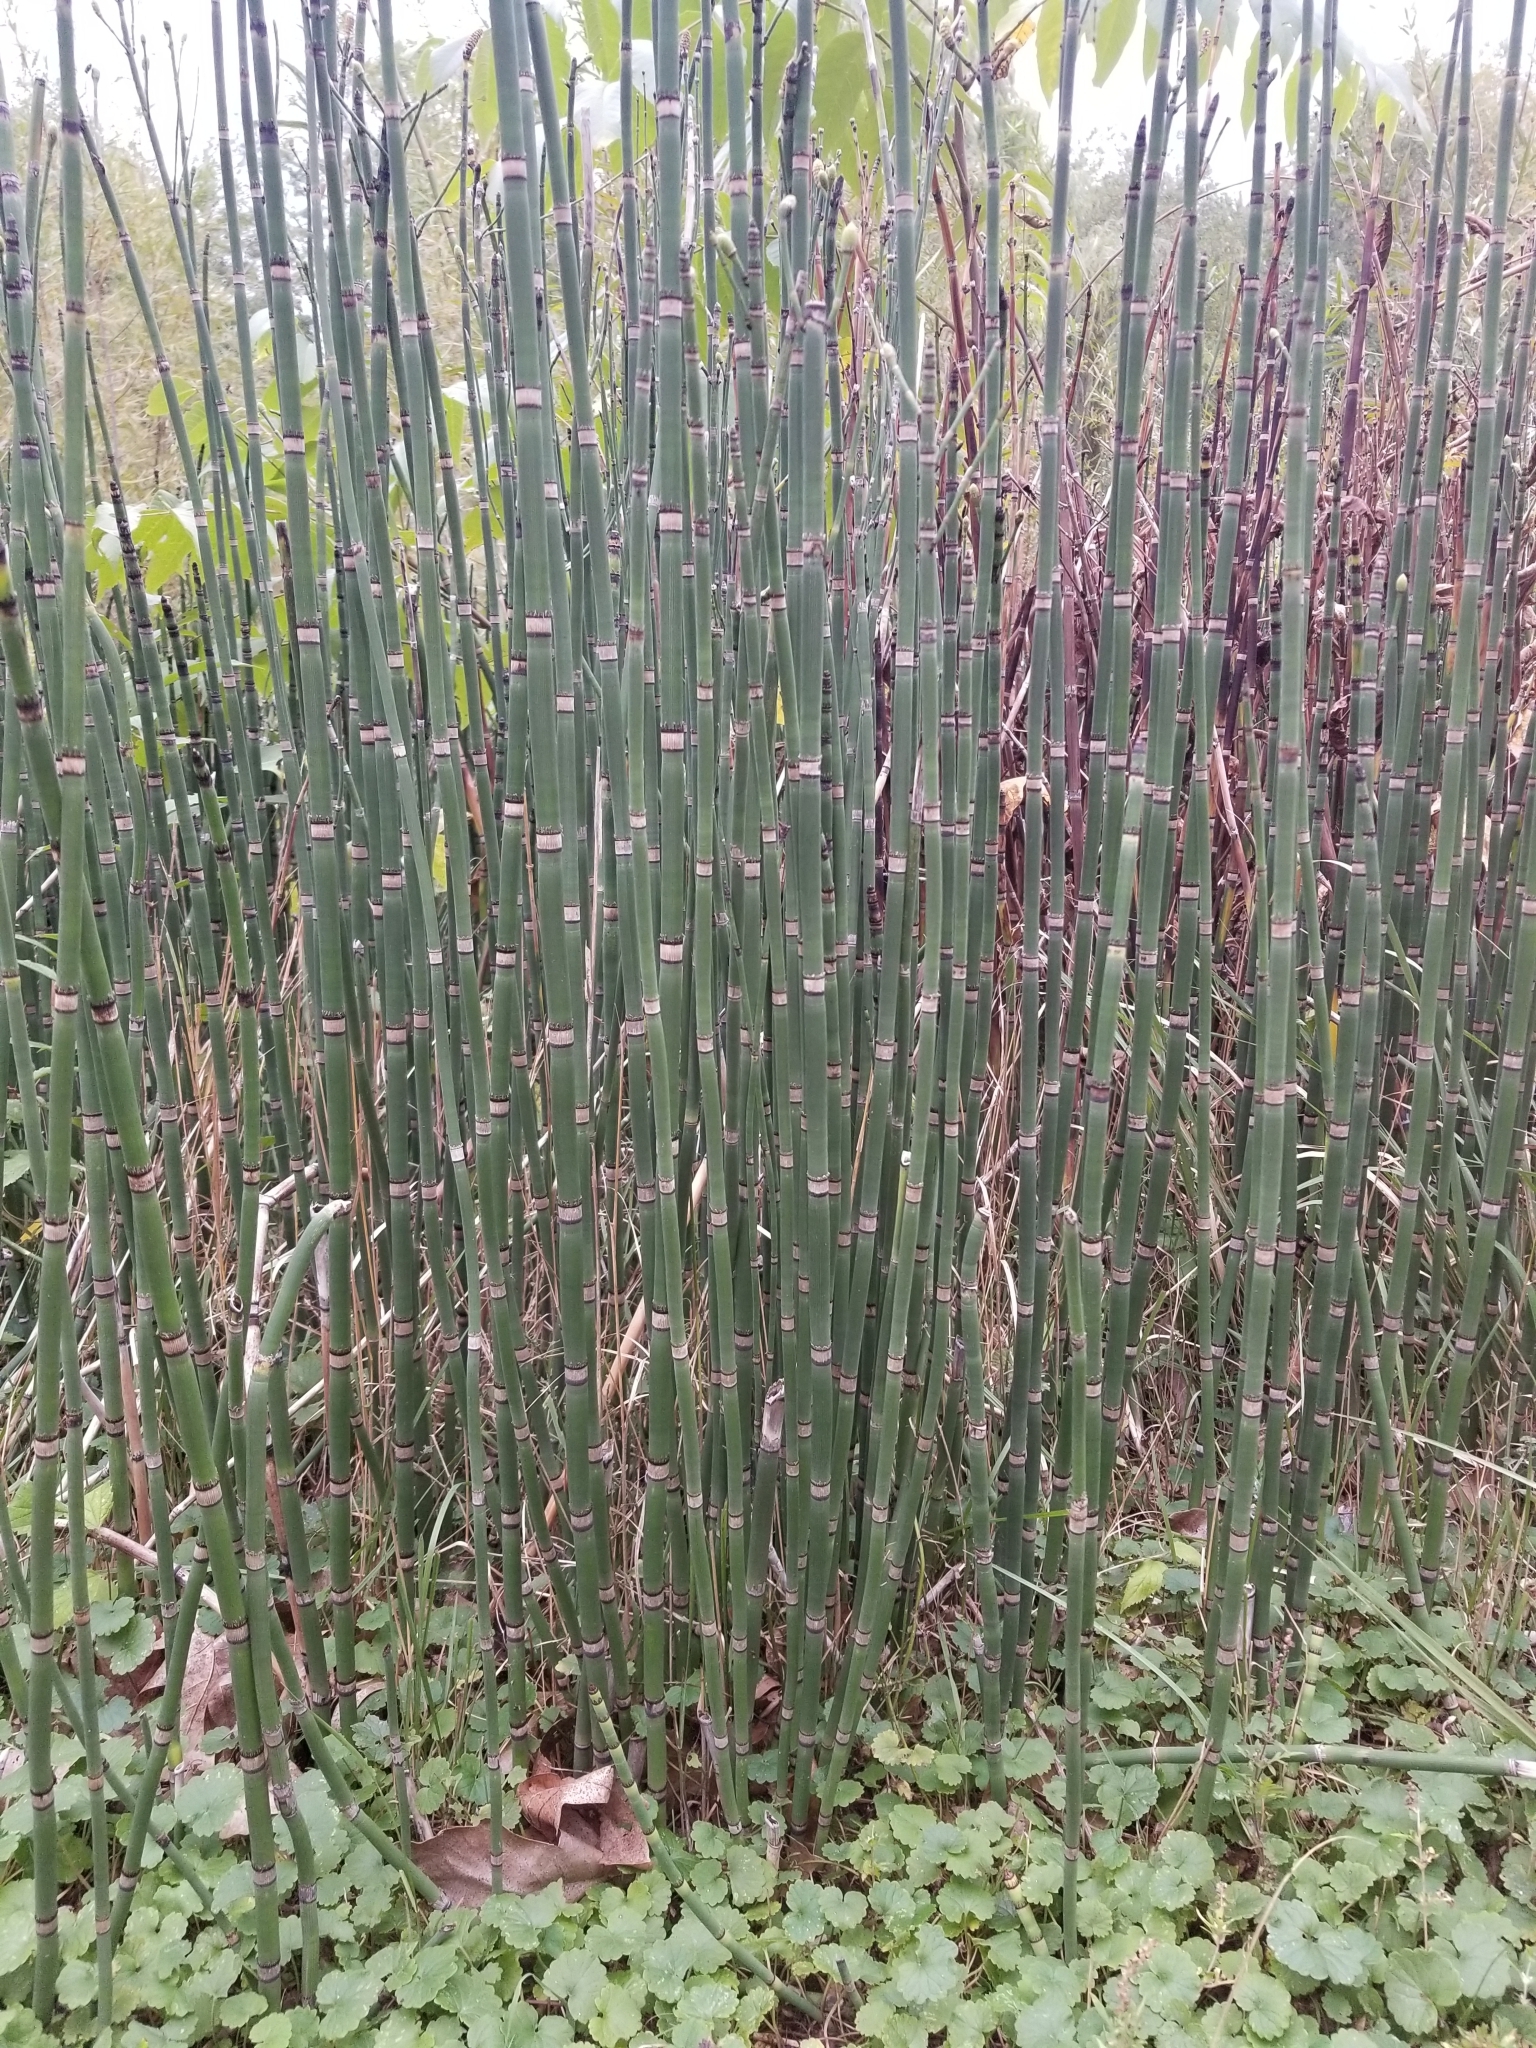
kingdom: Plantae
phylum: Tracheophyta
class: Polypodiopsida
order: Equisetales
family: Equisetaceae
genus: Equisetum
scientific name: Equisetum praealtum
